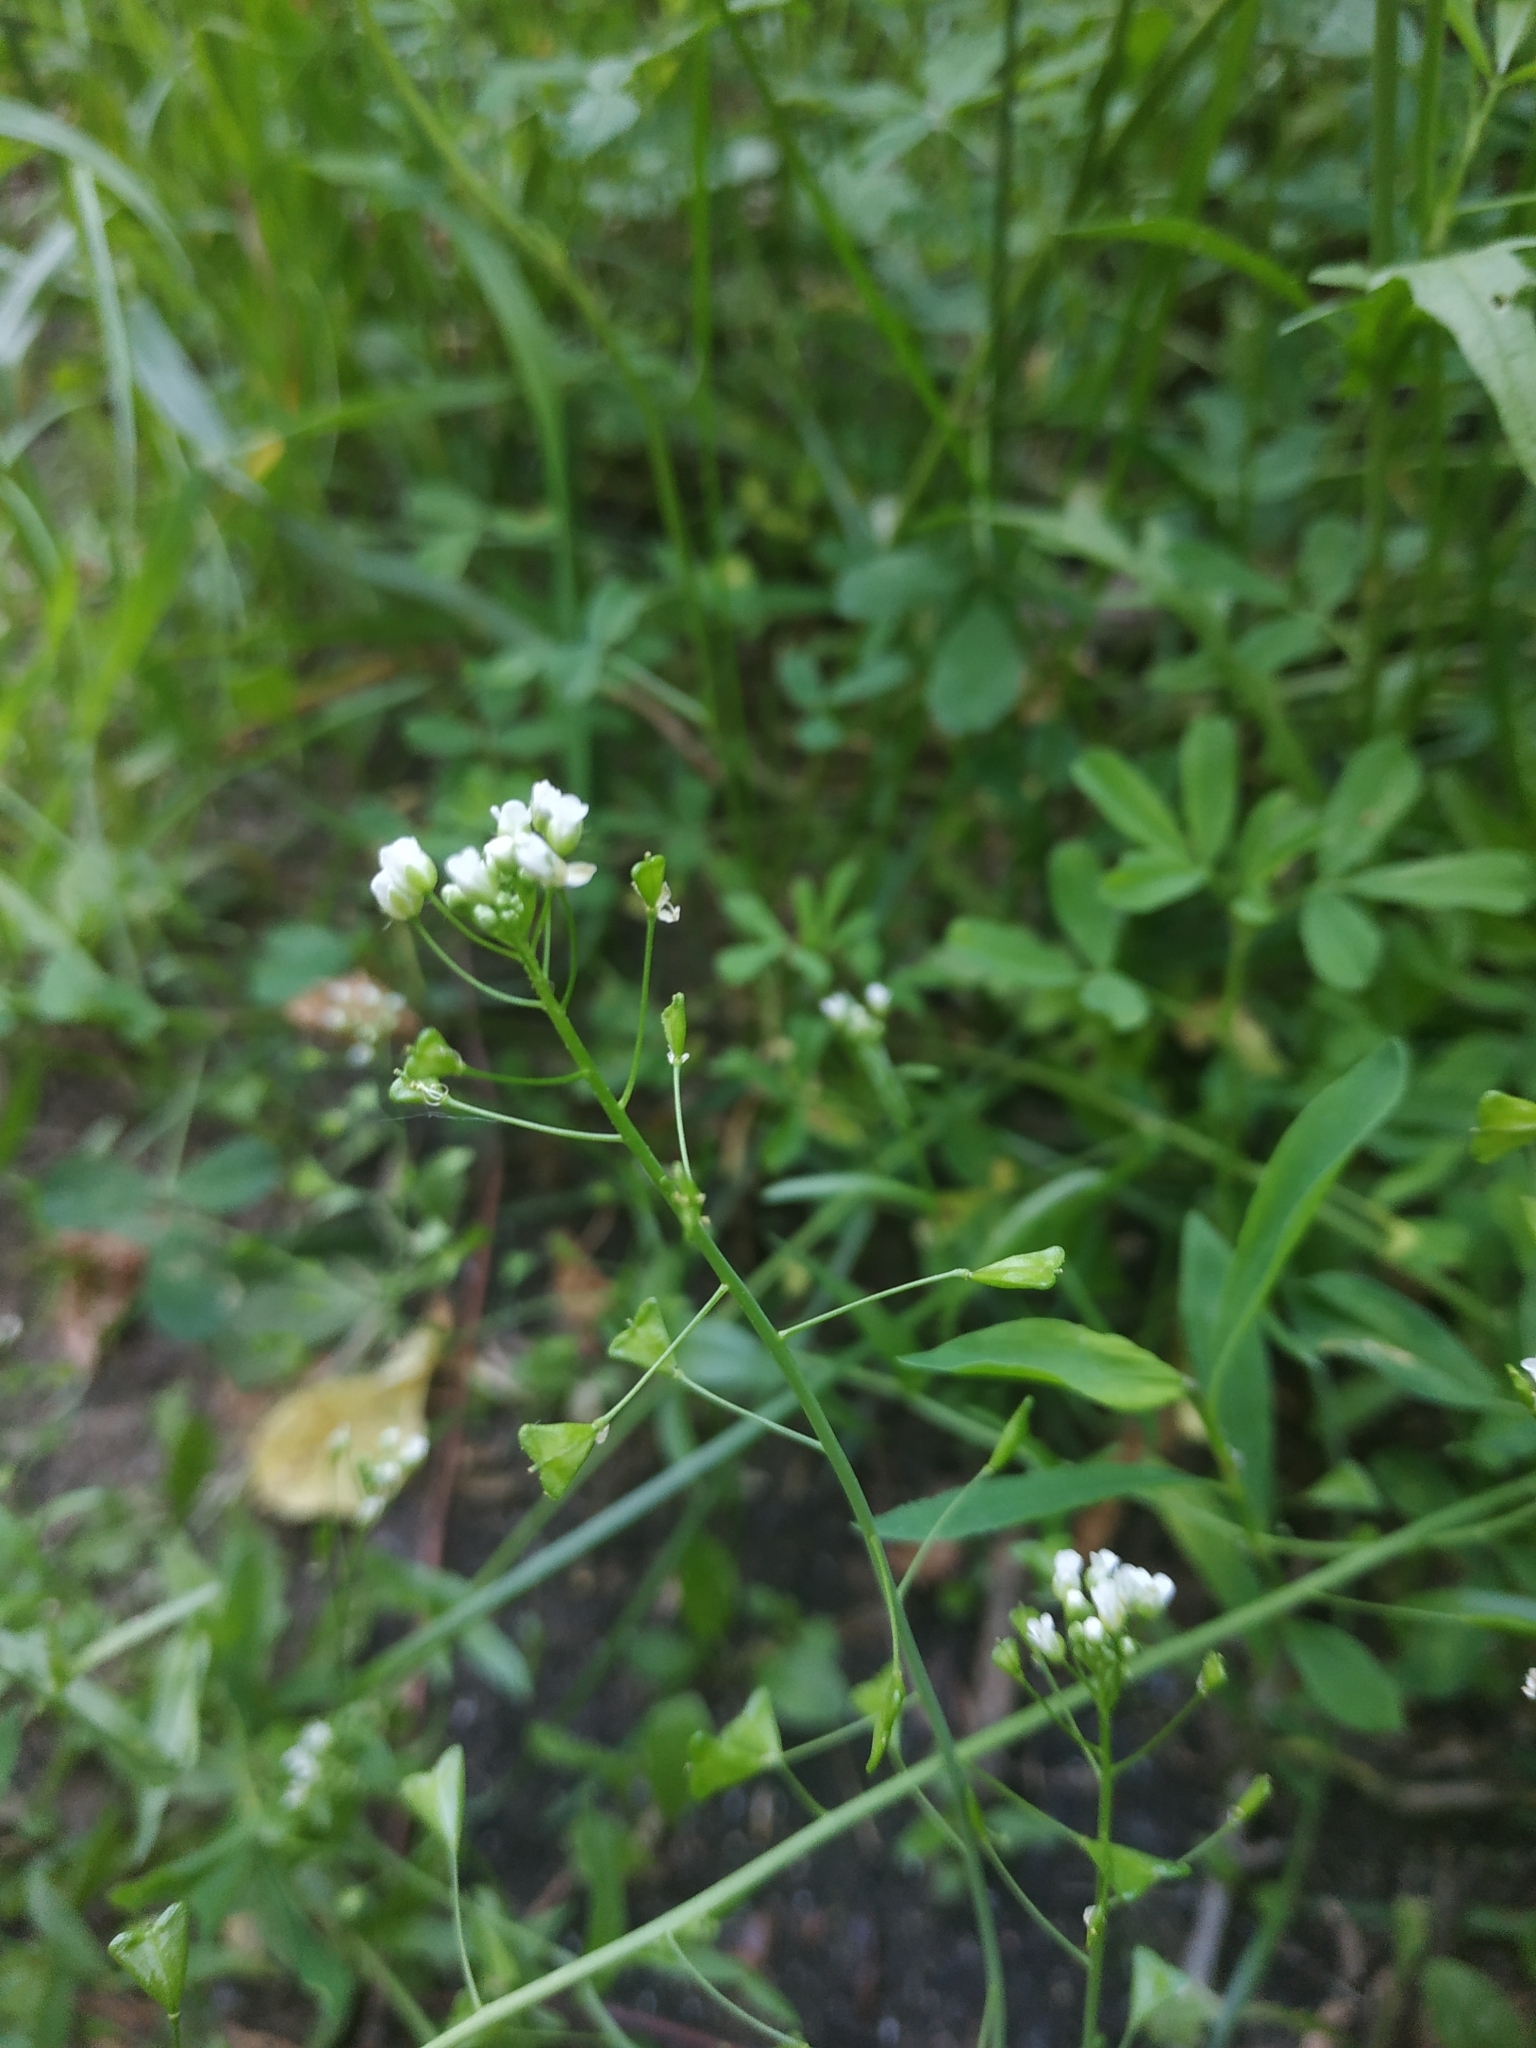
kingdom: Plantae
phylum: Tracheophyta
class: Magnoliopsida
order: Brassicales
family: Brassicaceae
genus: Capsella
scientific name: Capsella bursa-pastoris
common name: Shepherd's purse
